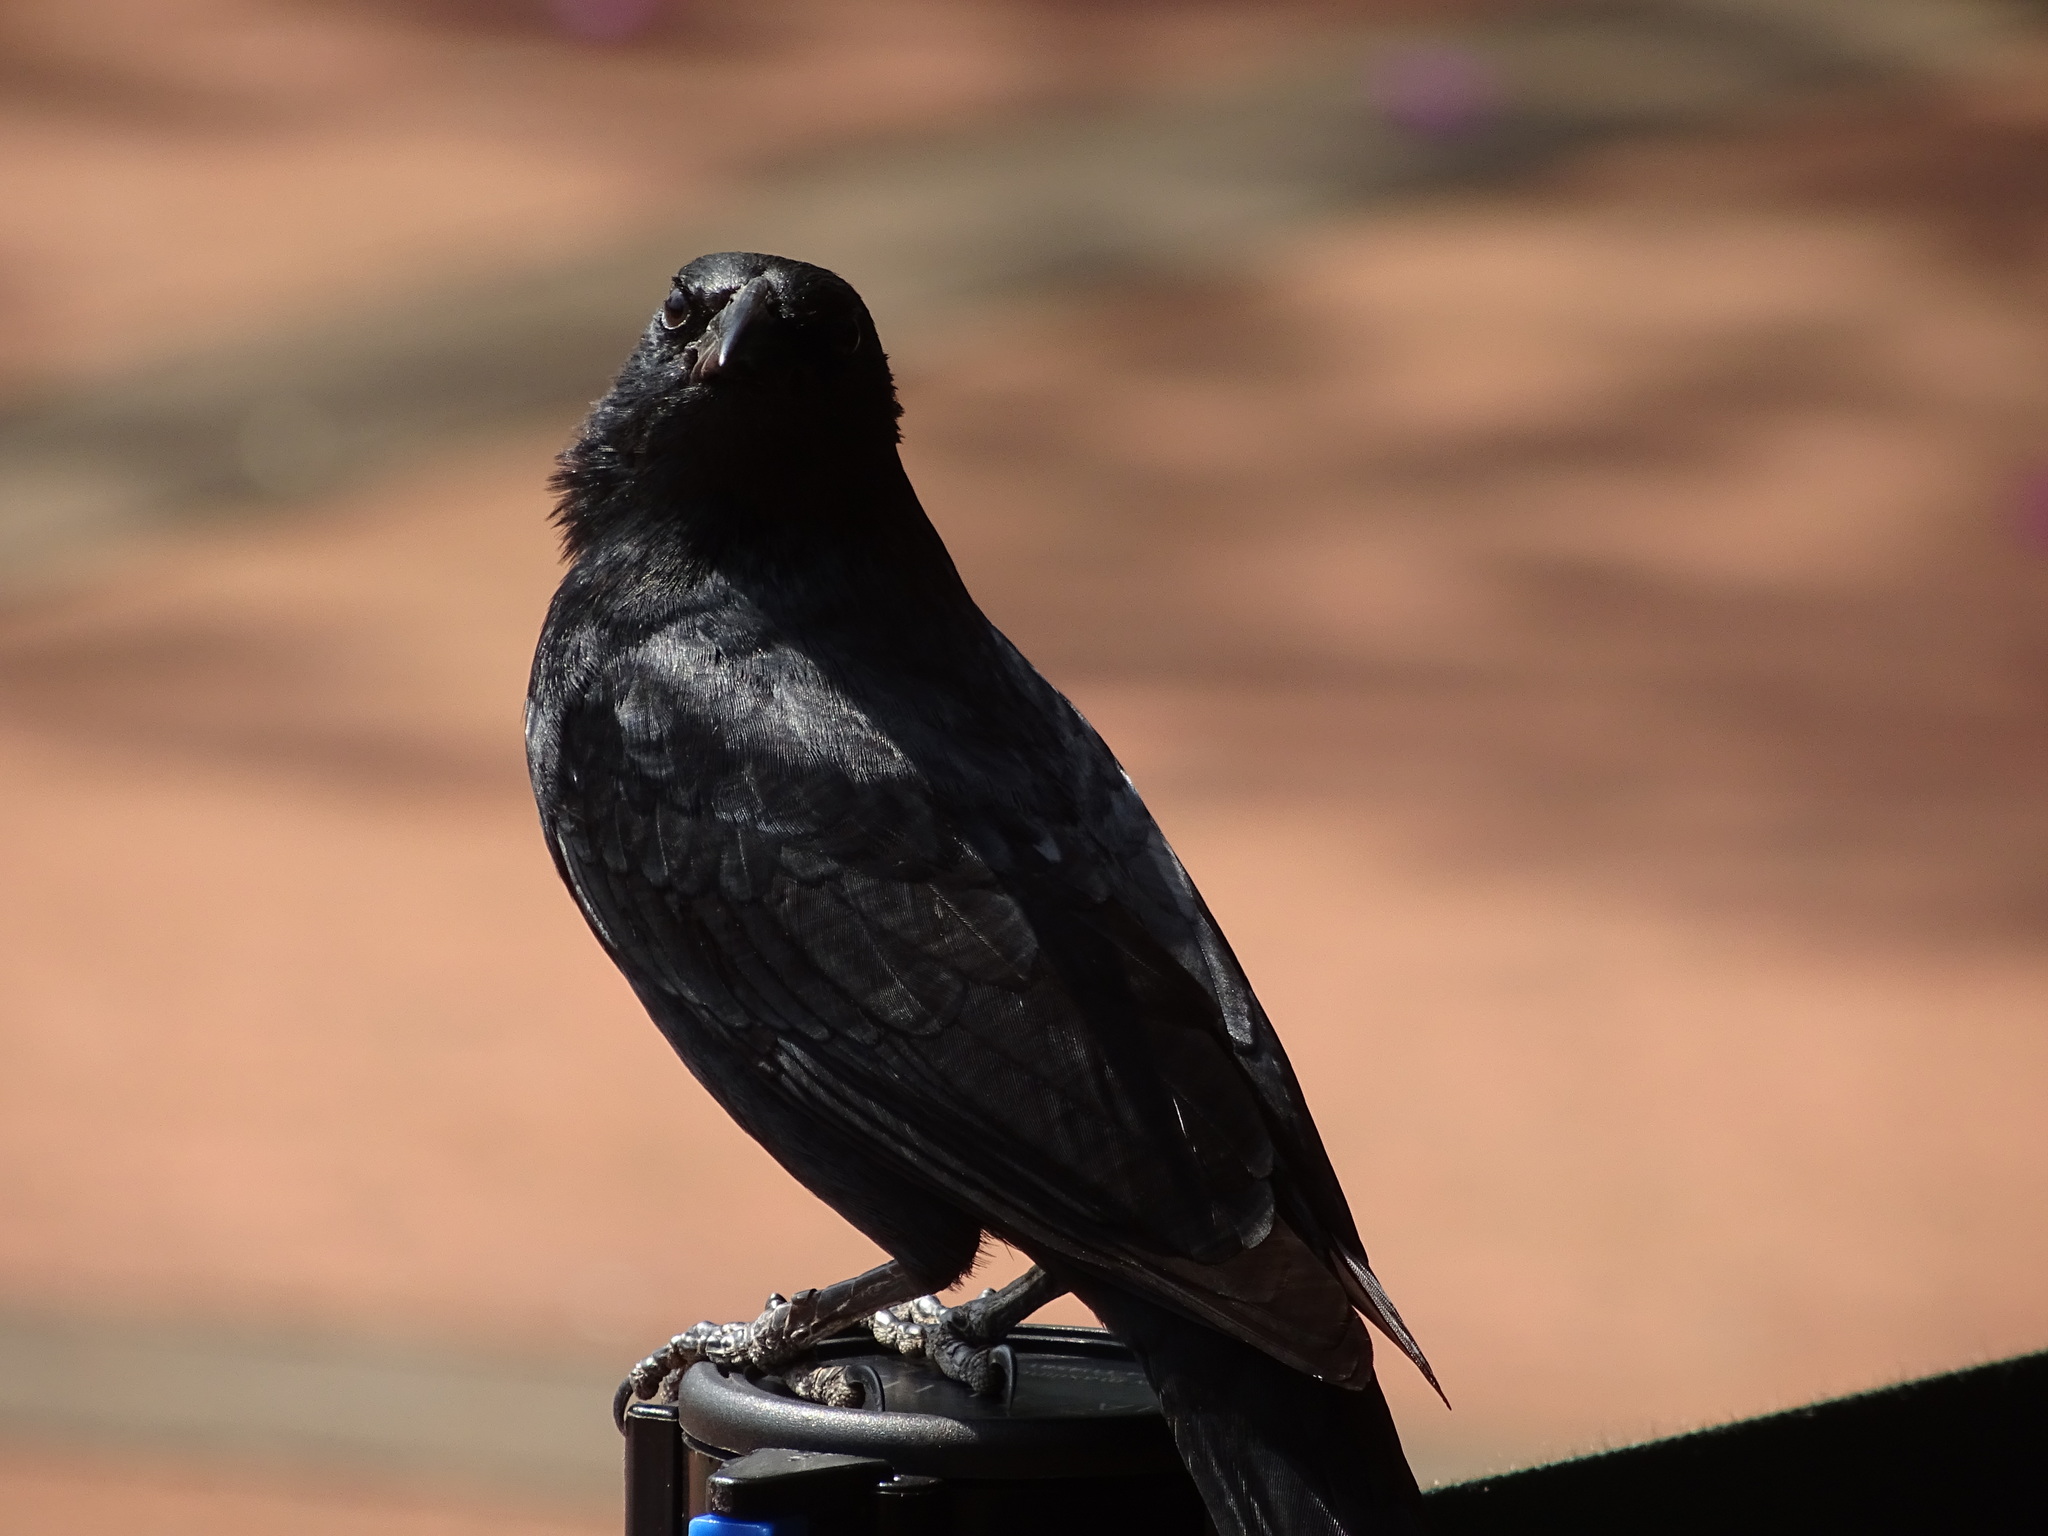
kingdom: Animalia
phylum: Chordata
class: Aves
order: Passeriformes
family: Icteridae
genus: Gnorimopsar
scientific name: Gnorimopsar chopi
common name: Chopi blackbird
